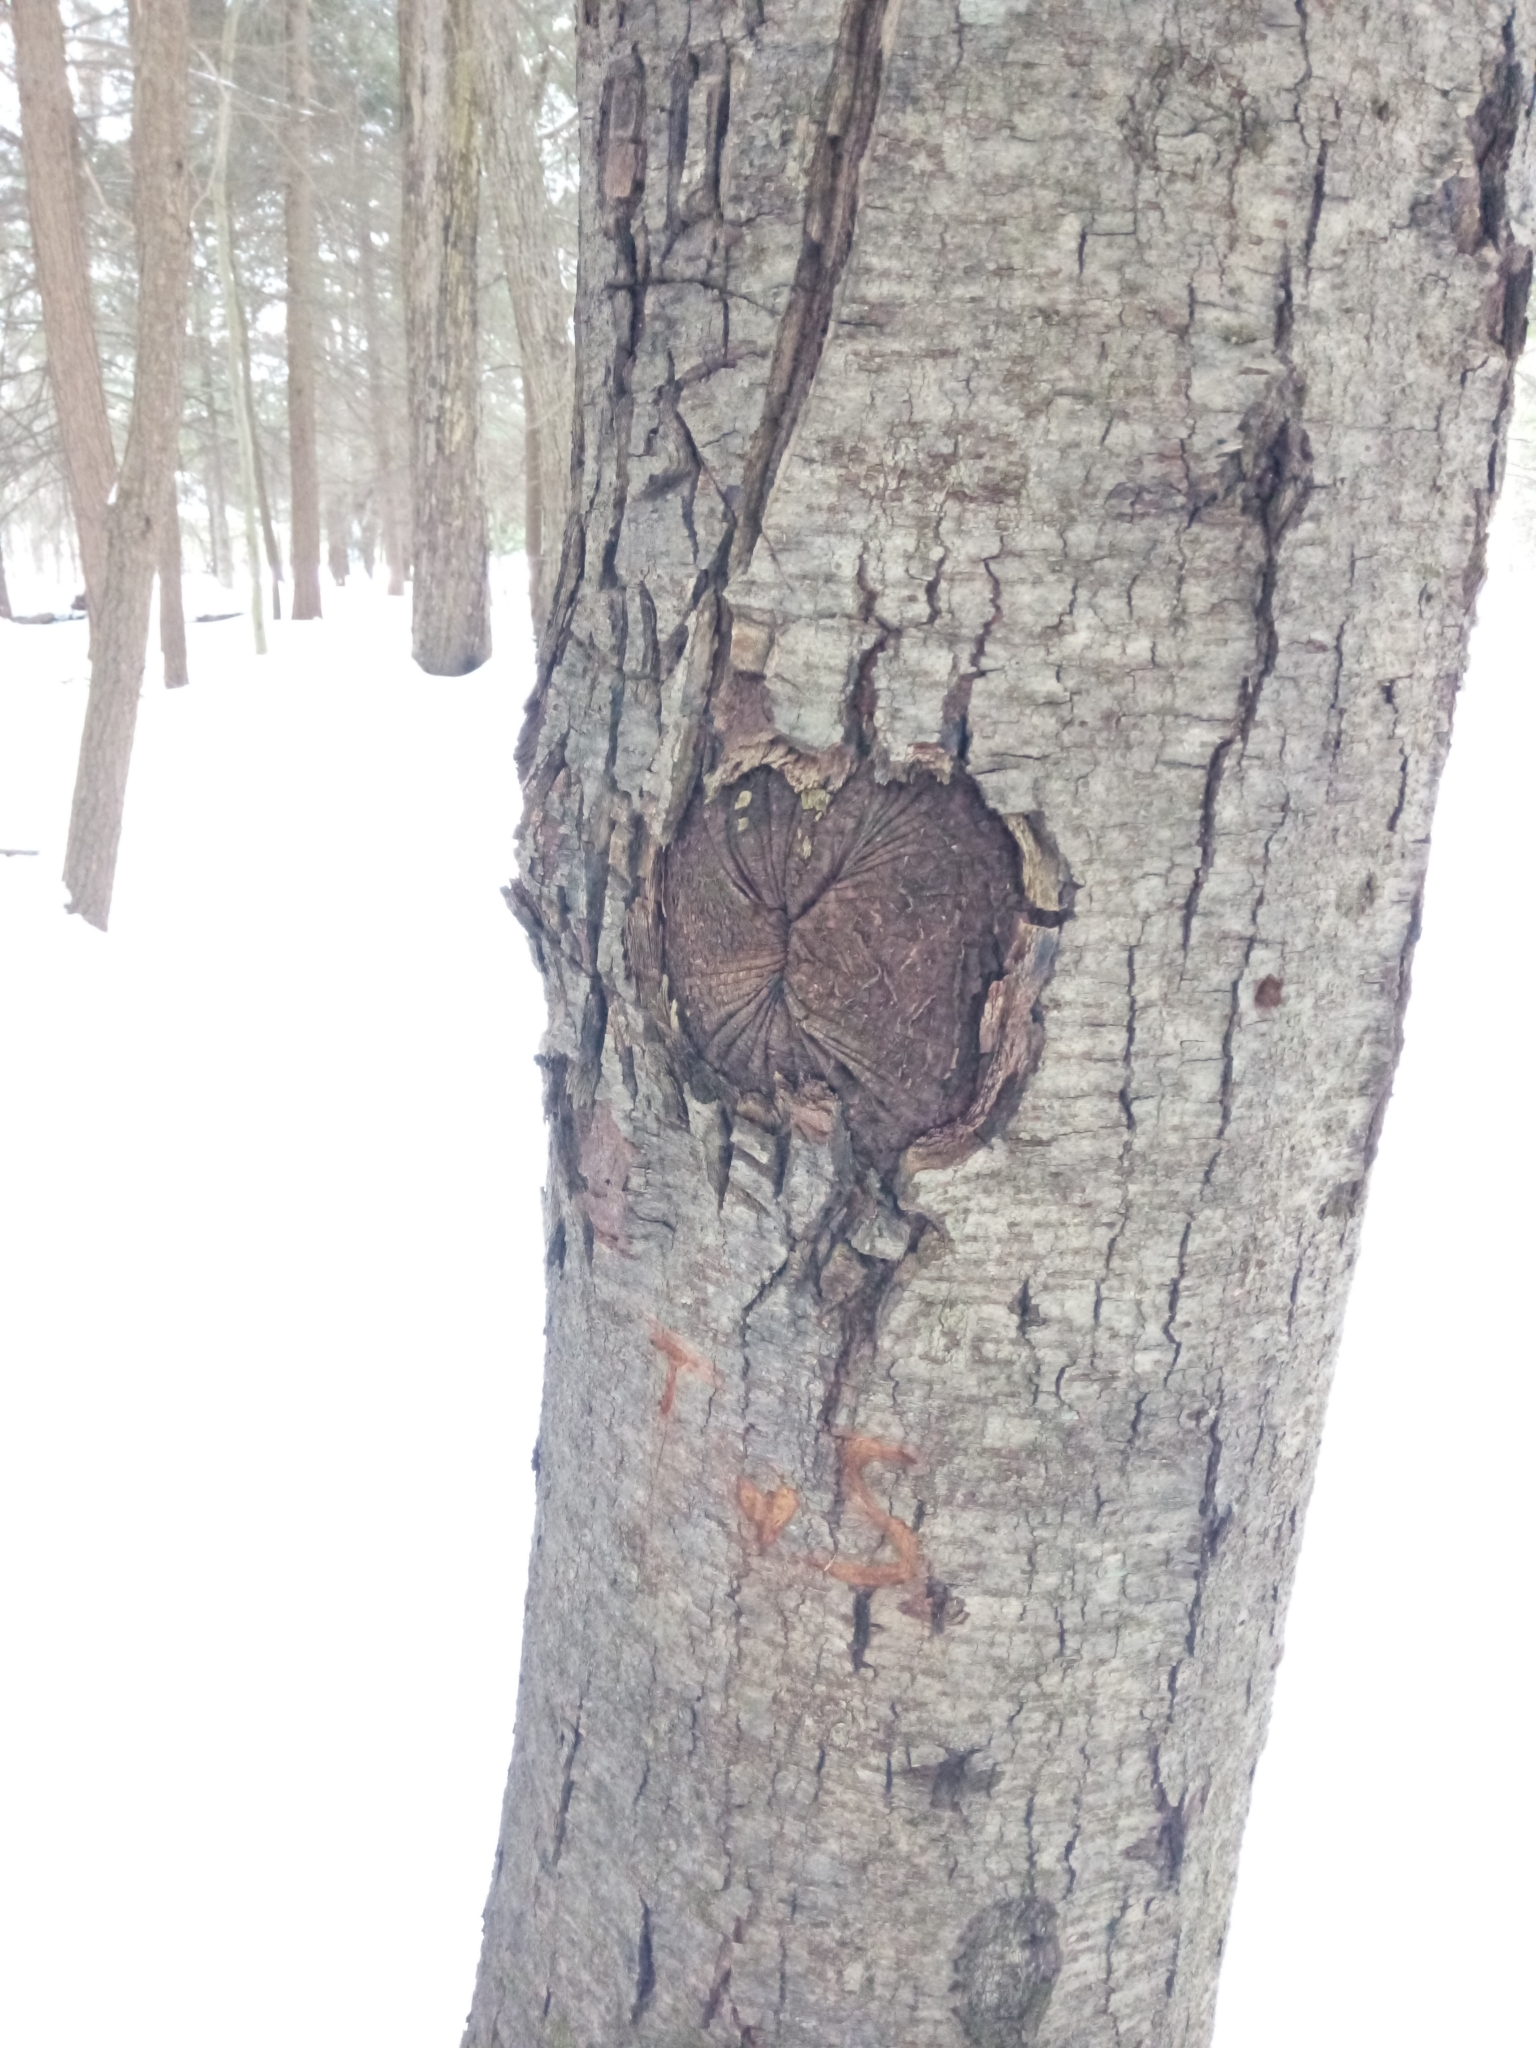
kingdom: Plantae
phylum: Tracheophyta
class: Magnoliopsida
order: Fagales
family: Betulaceae
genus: Betula
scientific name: Betula lenta
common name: Black birch
